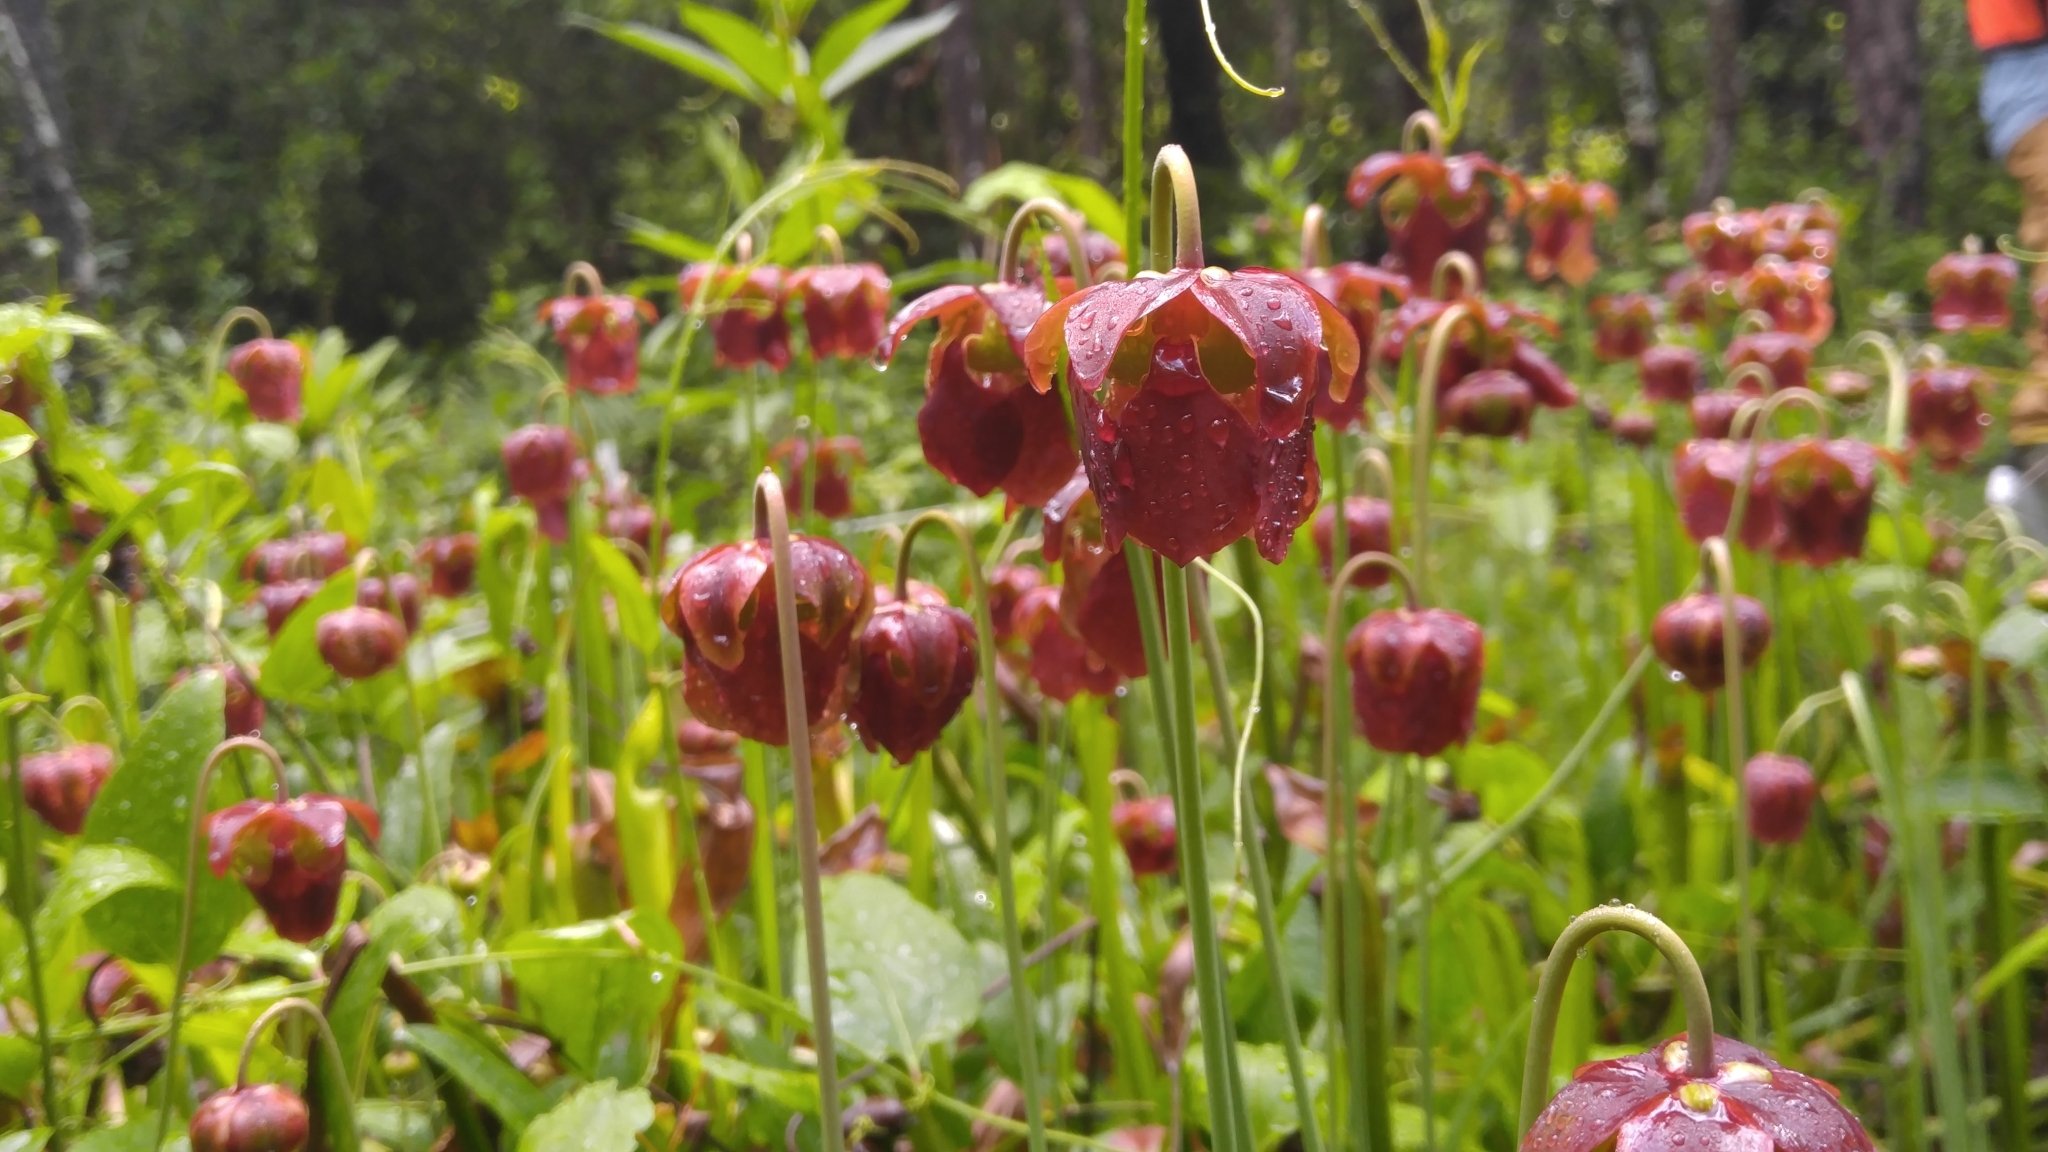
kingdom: Plantae
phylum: Tracheophyta
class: Magnoliopsida
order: Ericales
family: Sarraceniaceae
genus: Sarracenia
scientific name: Sarracenia jonesii
